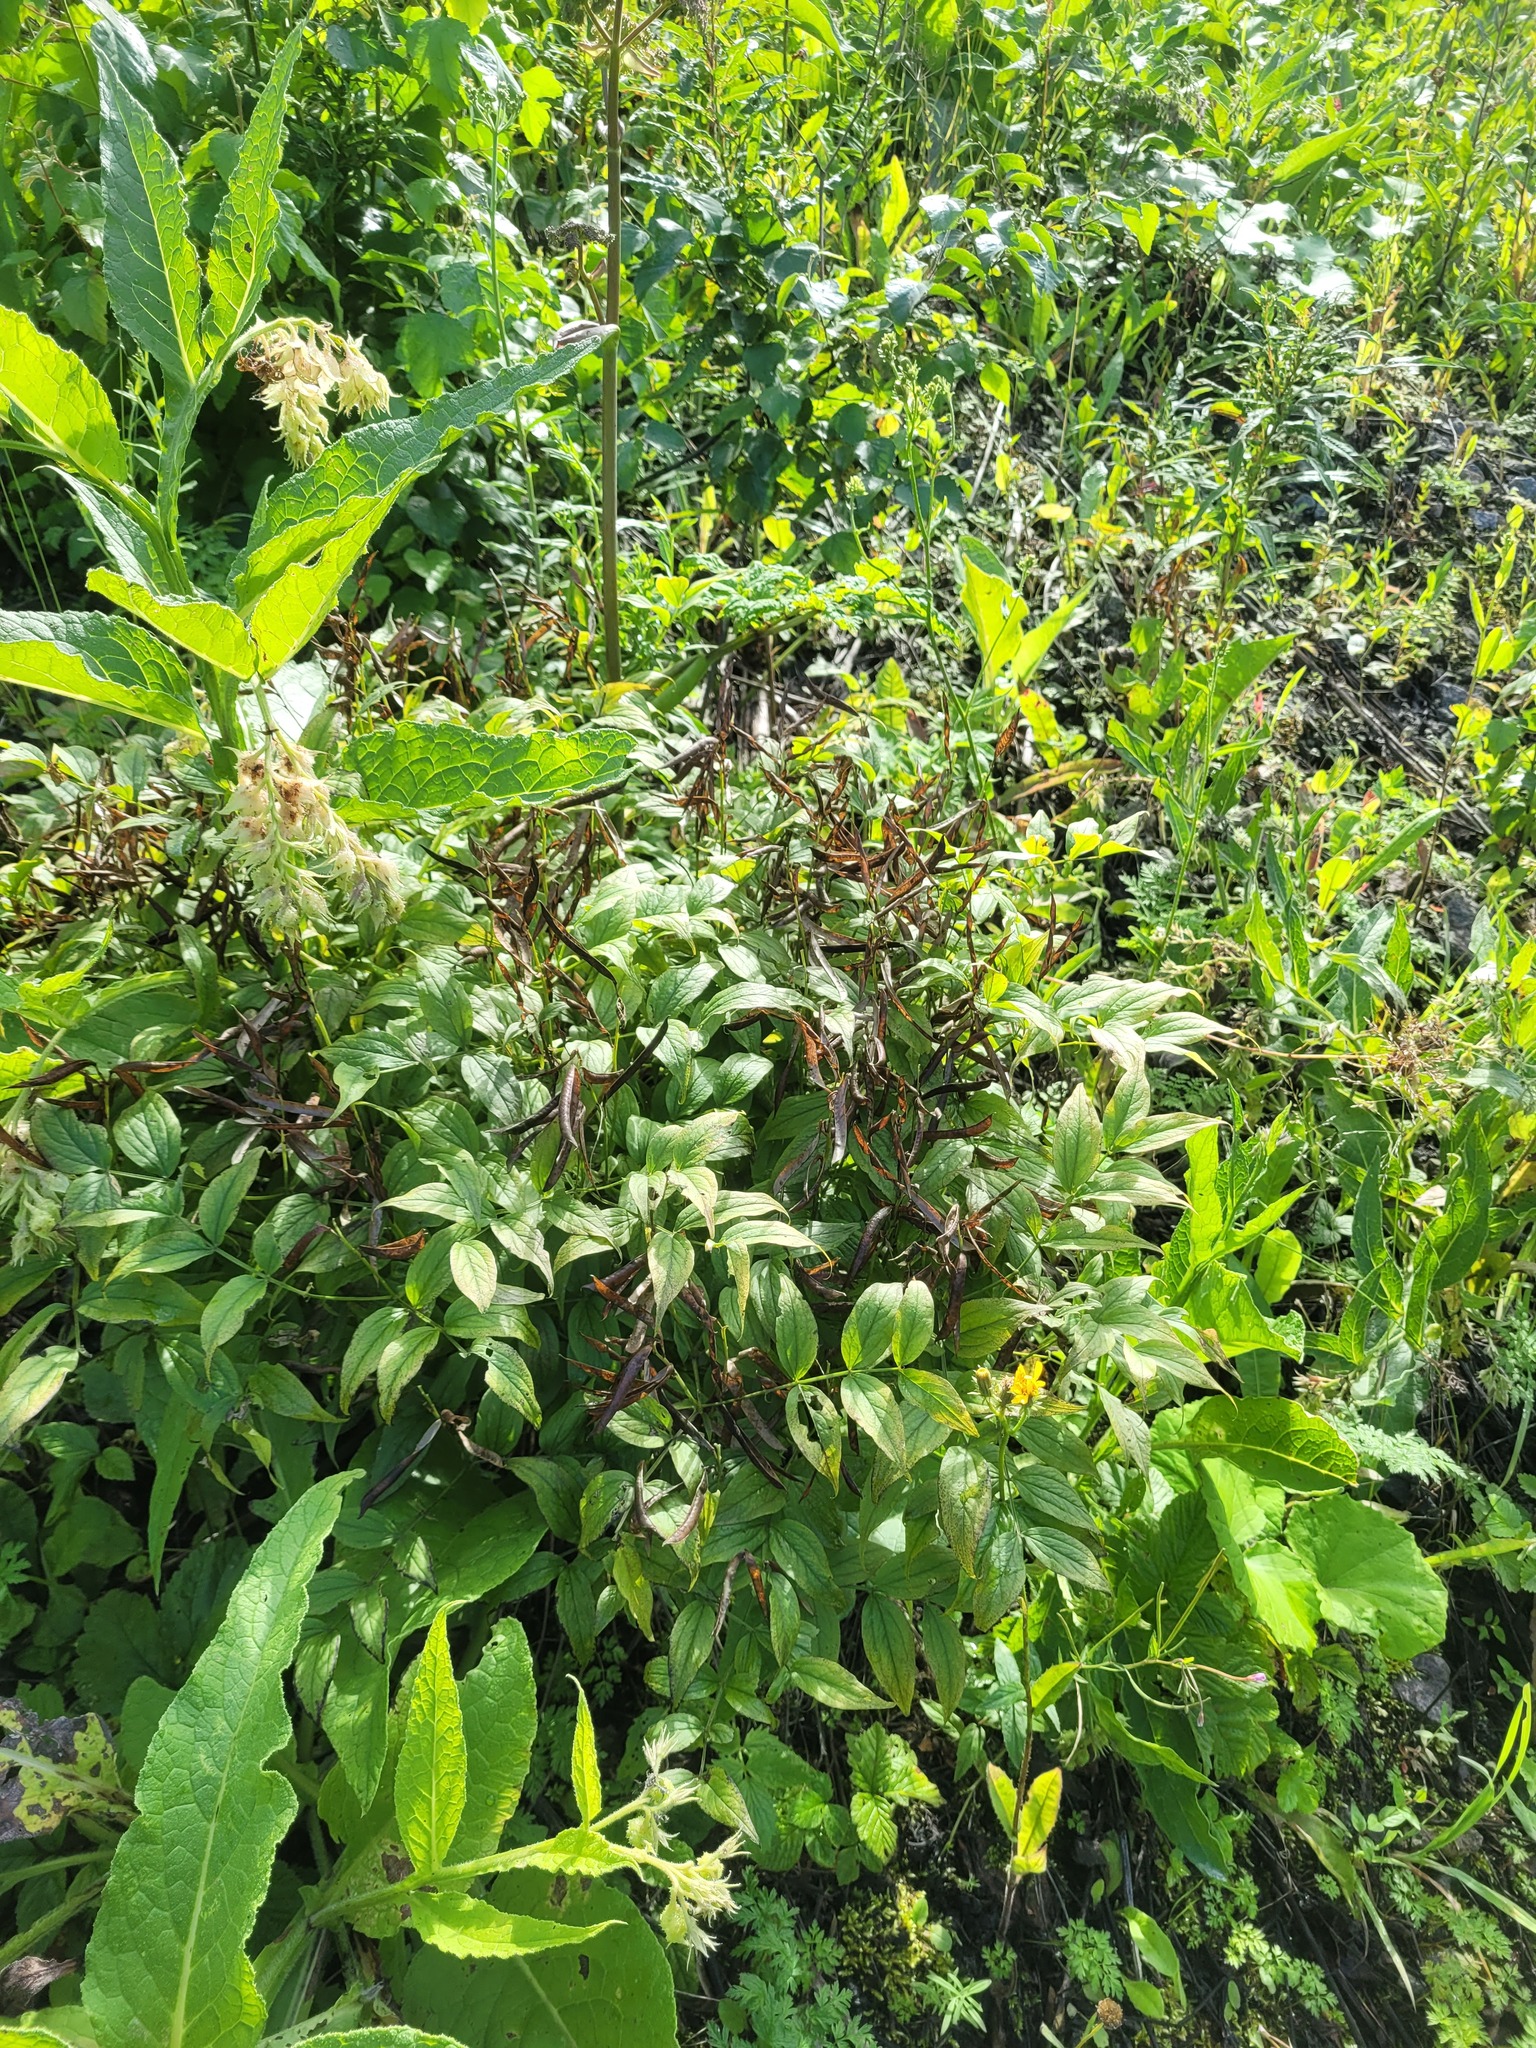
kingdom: Plantae
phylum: Tracheophyta
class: Magnoliopsida
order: Fabales
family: Fabaceae
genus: Lathyrus
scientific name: Lathyrus vernus
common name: Spring pea
